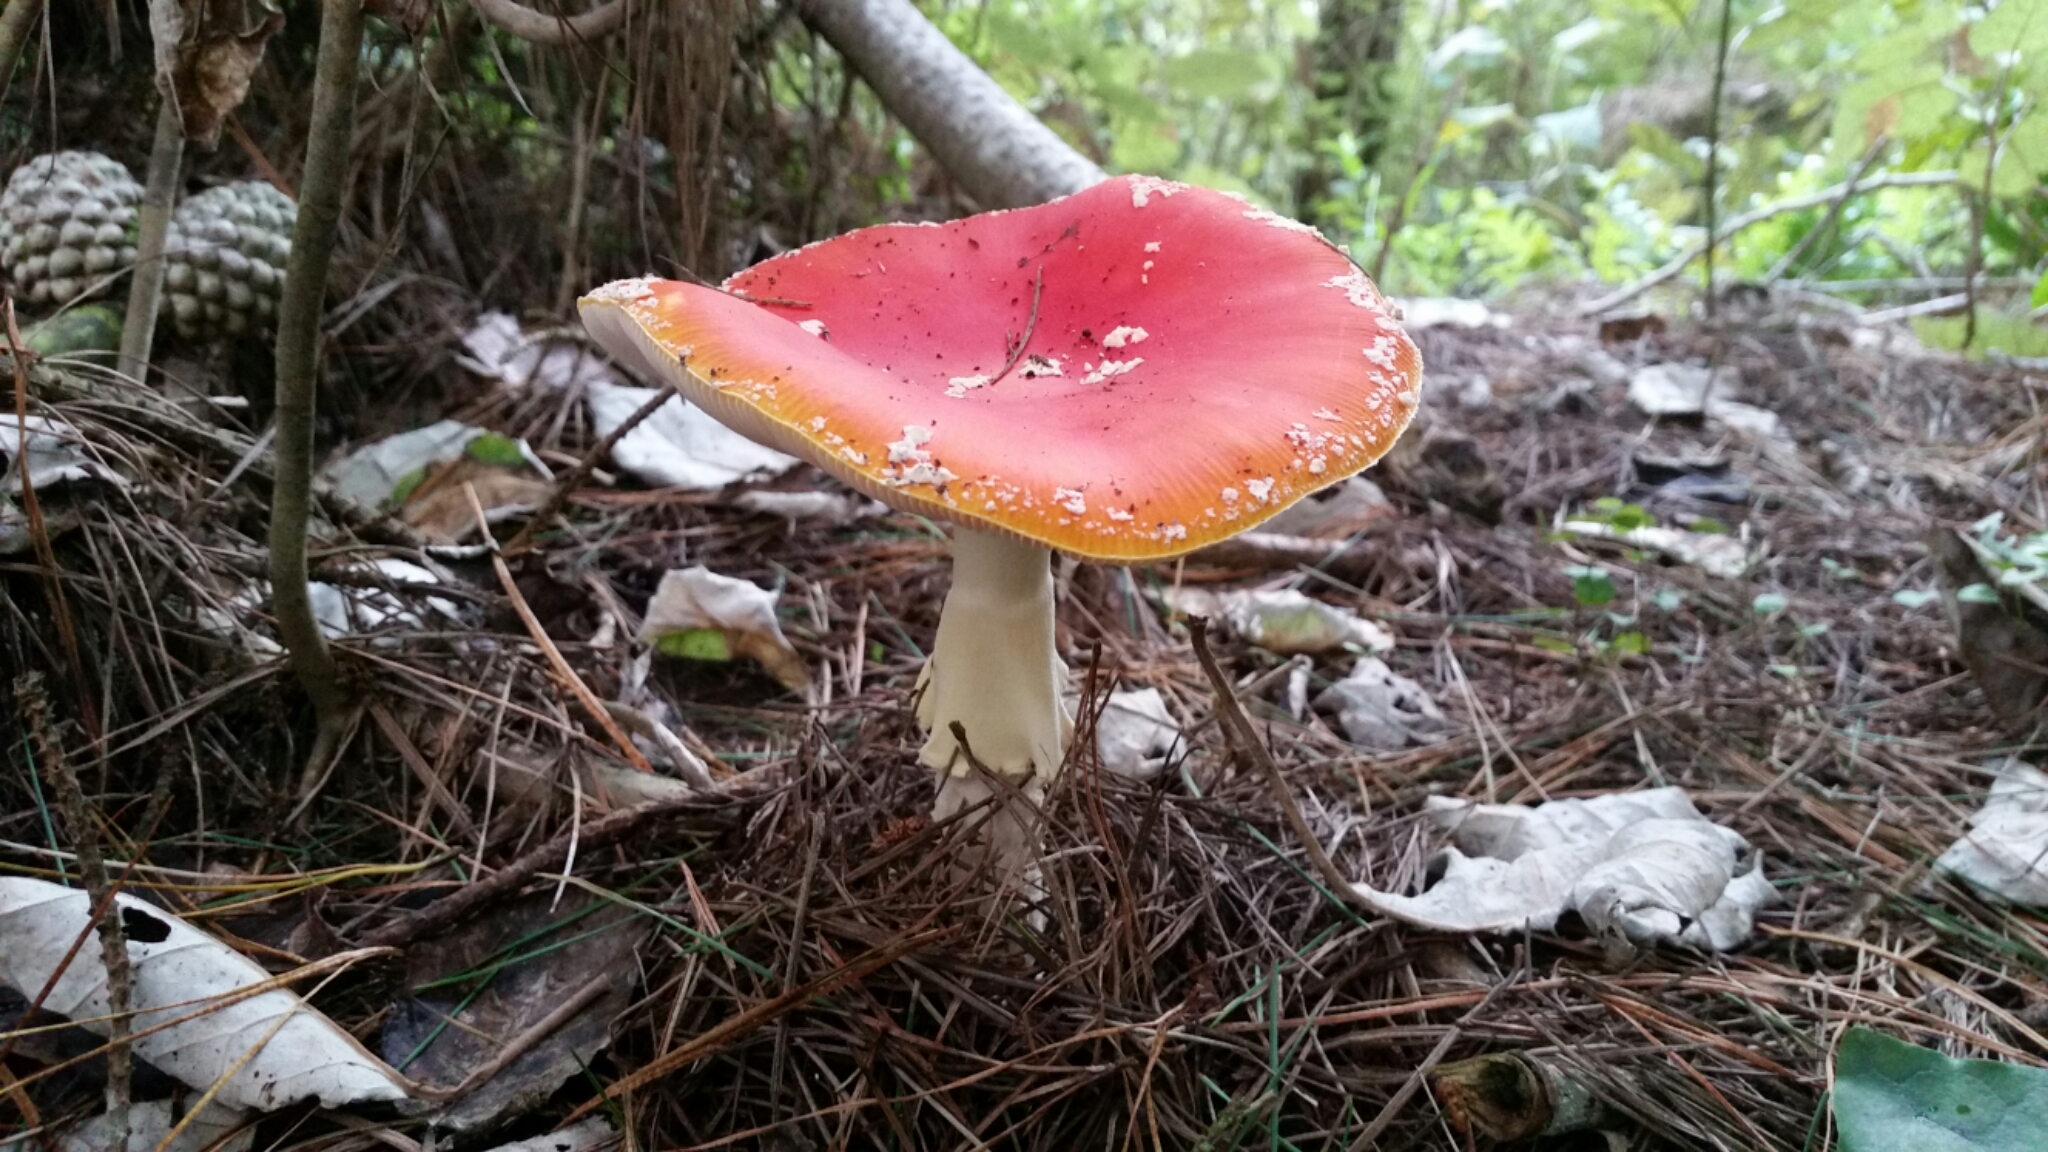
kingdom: Fungi
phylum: Basidiomycota
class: Agaricomycetes
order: Agaricales
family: Amanitaceae
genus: Amanita
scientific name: Amanita muscaria
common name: Fly agaric
